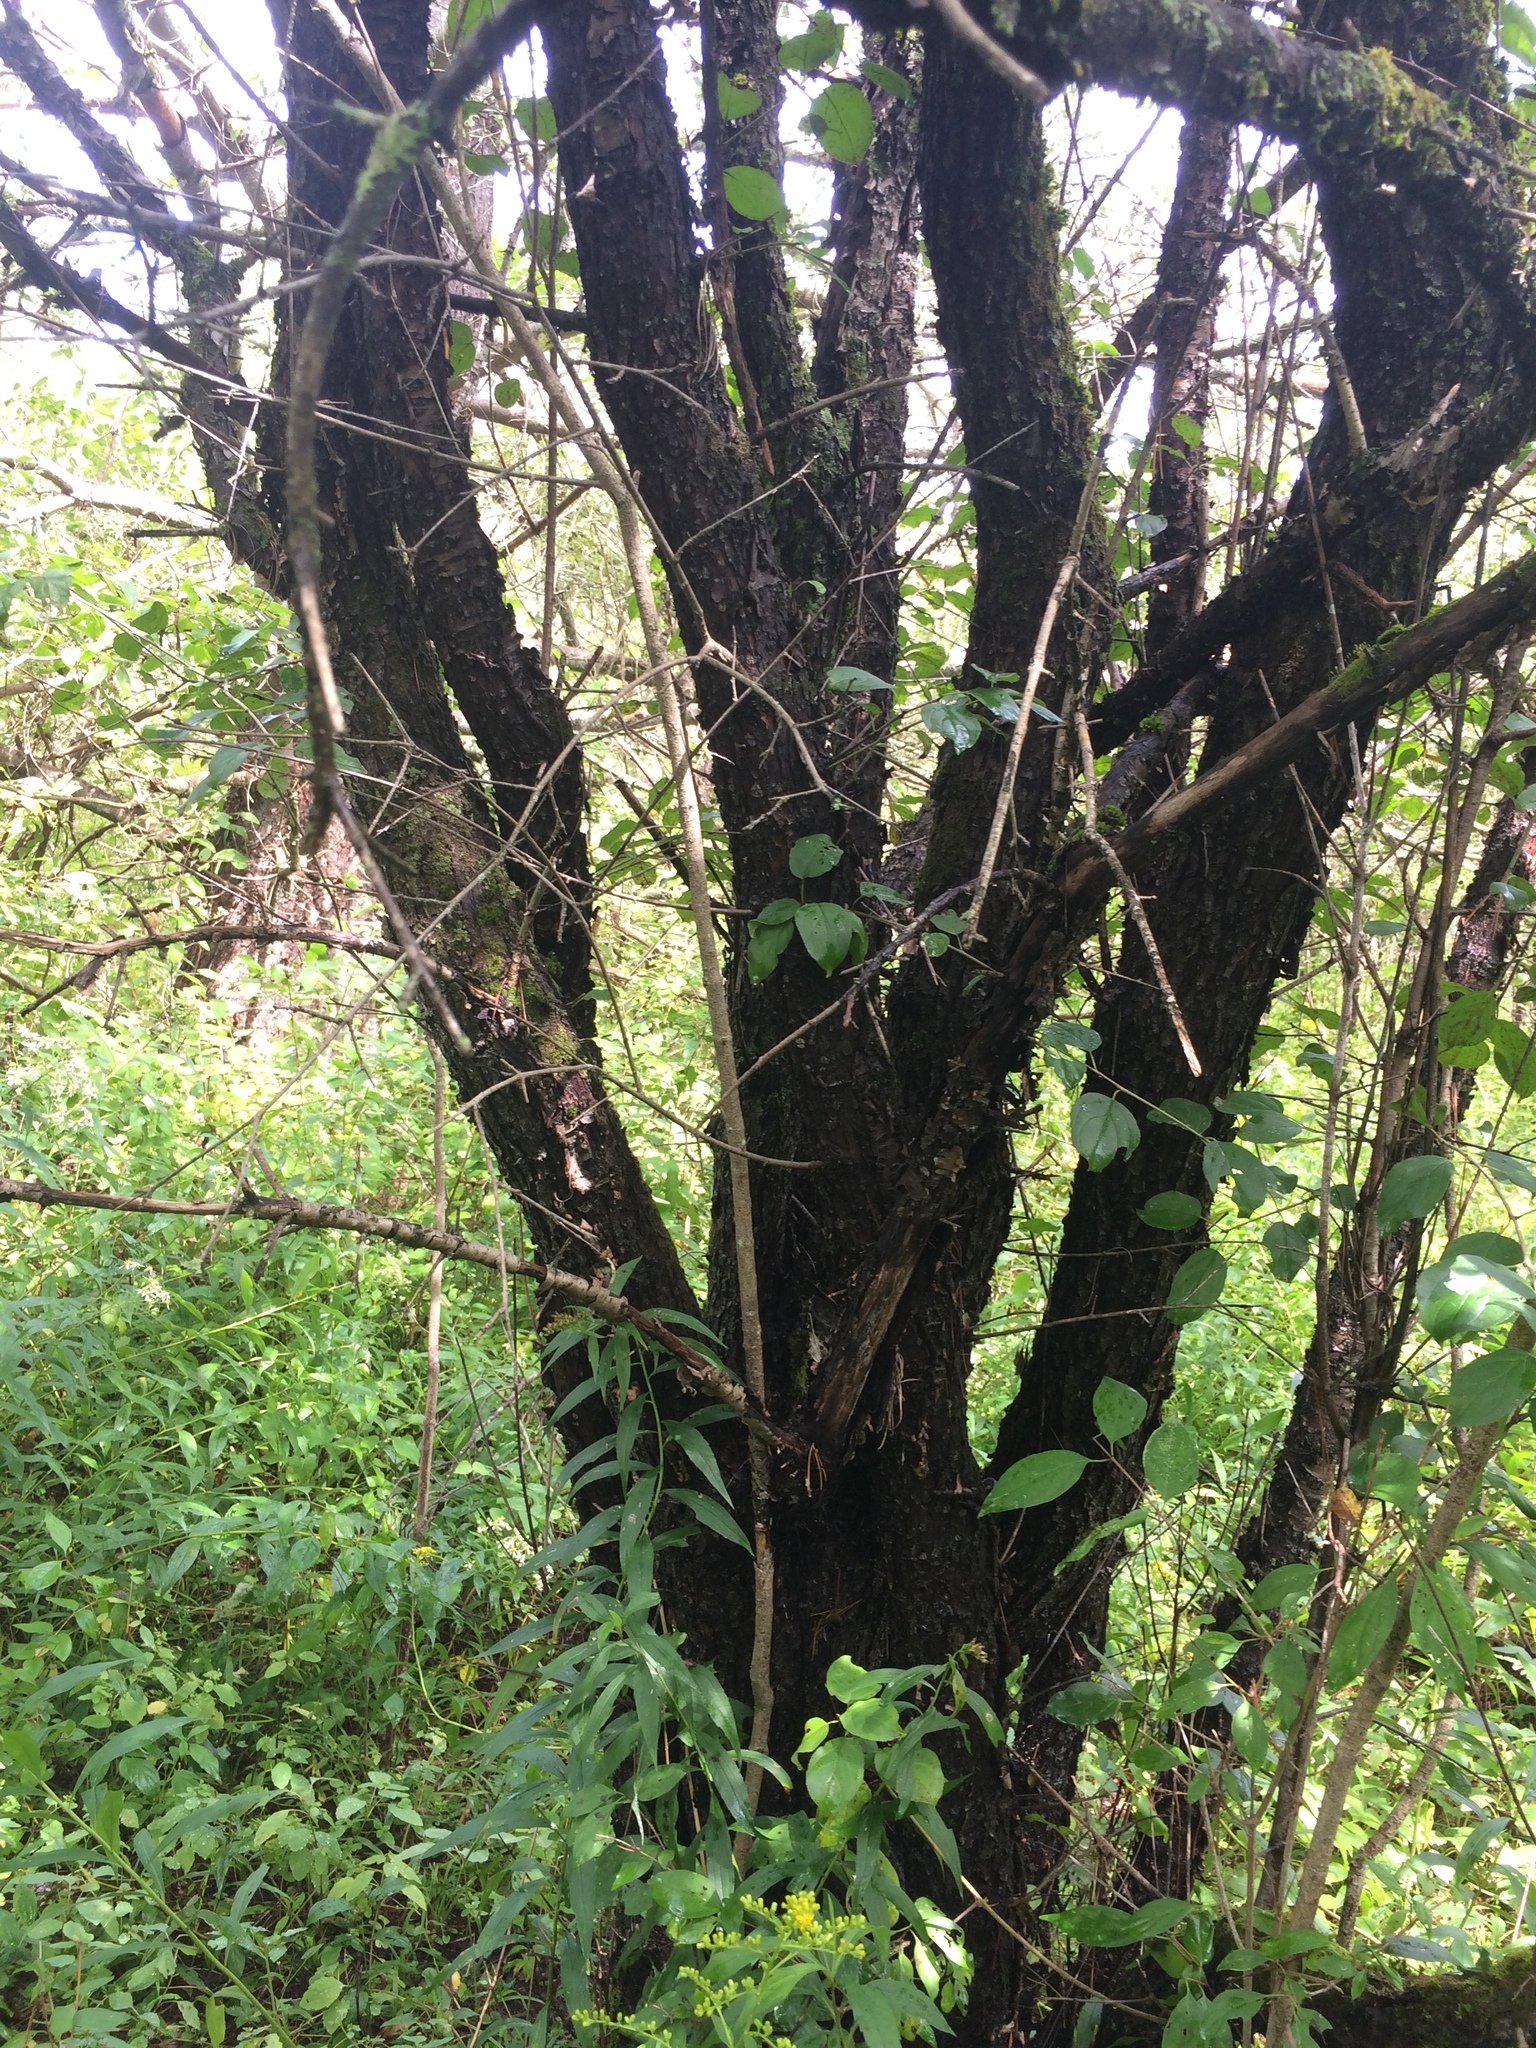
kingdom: Plantae
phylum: Tracheophyta
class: Magnoliopsida
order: Rosales
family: Rhamnaceae
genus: Rhamnus
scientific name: Rhamnus cathartica
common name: Common buckthorn
